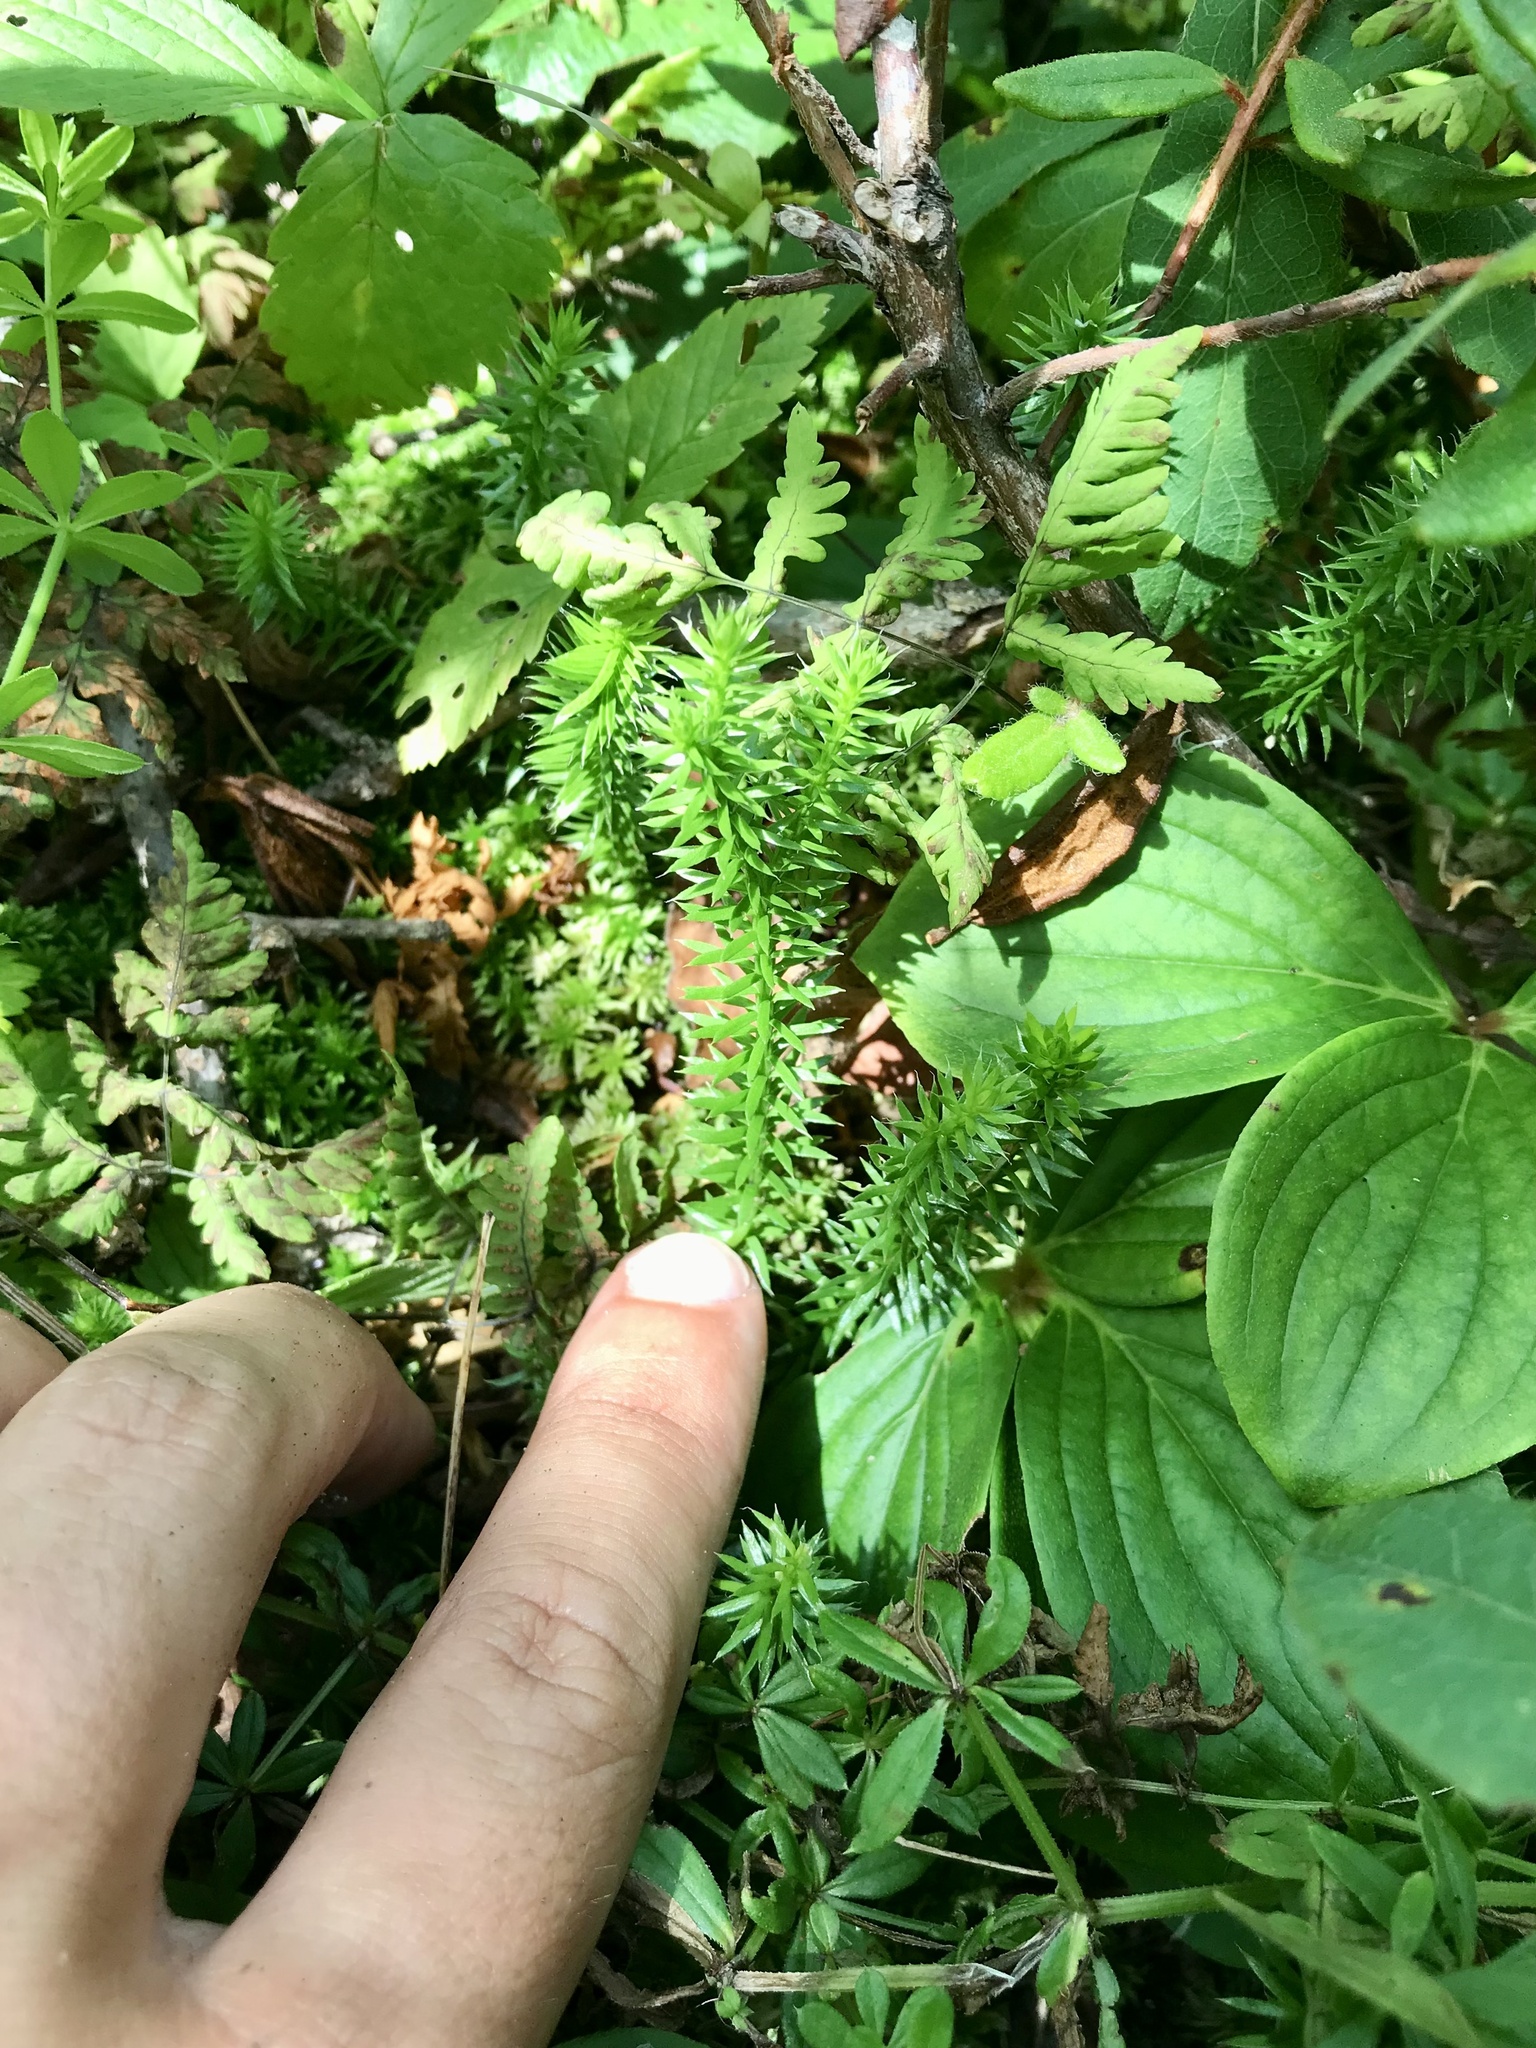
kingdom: Plantae
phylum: Tracheophyta
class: Lycopodiopsida
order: Lycopodiales
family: Lycopodiaceae
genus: Spinulum
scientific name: Spinulum annotinum
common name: Interrupted club-moss
